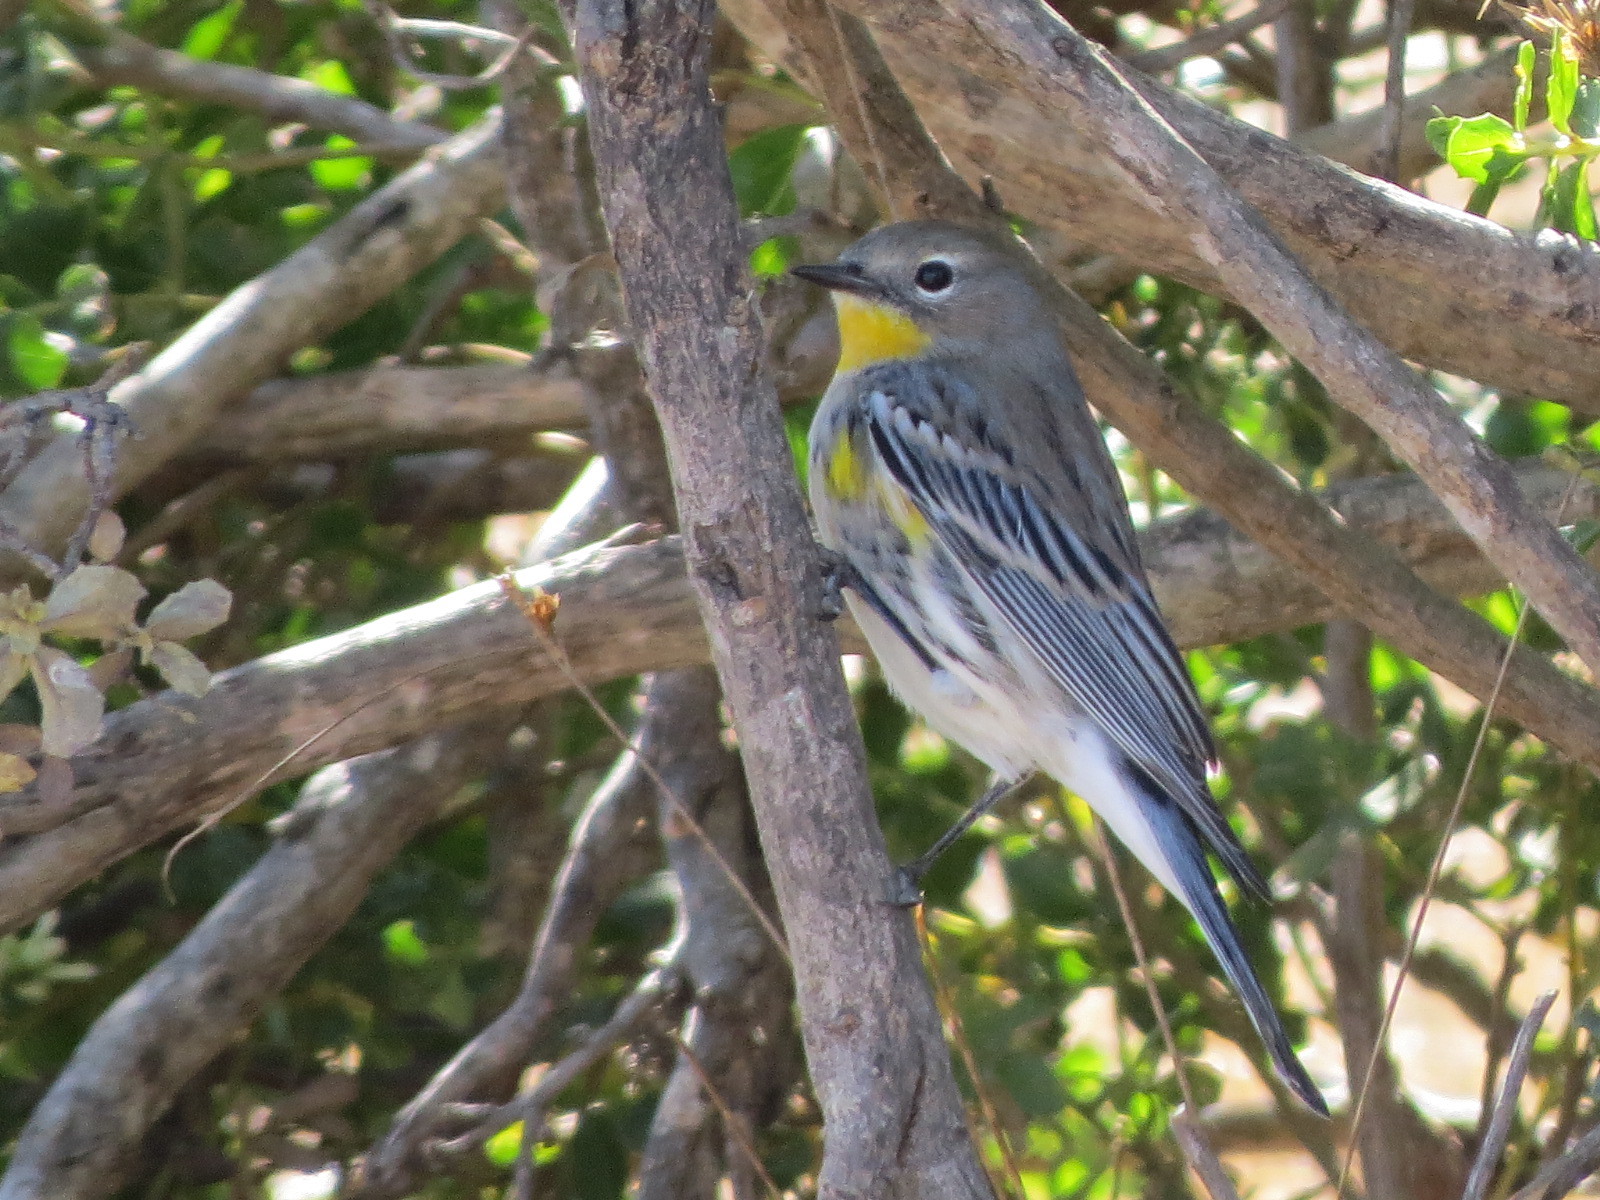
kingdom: Animalia
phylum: Chordata
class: Aves
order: Passeriformes
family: Parulidae
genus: Setophaga
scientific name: Setophaga auduboni
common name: Audubon's warbler
